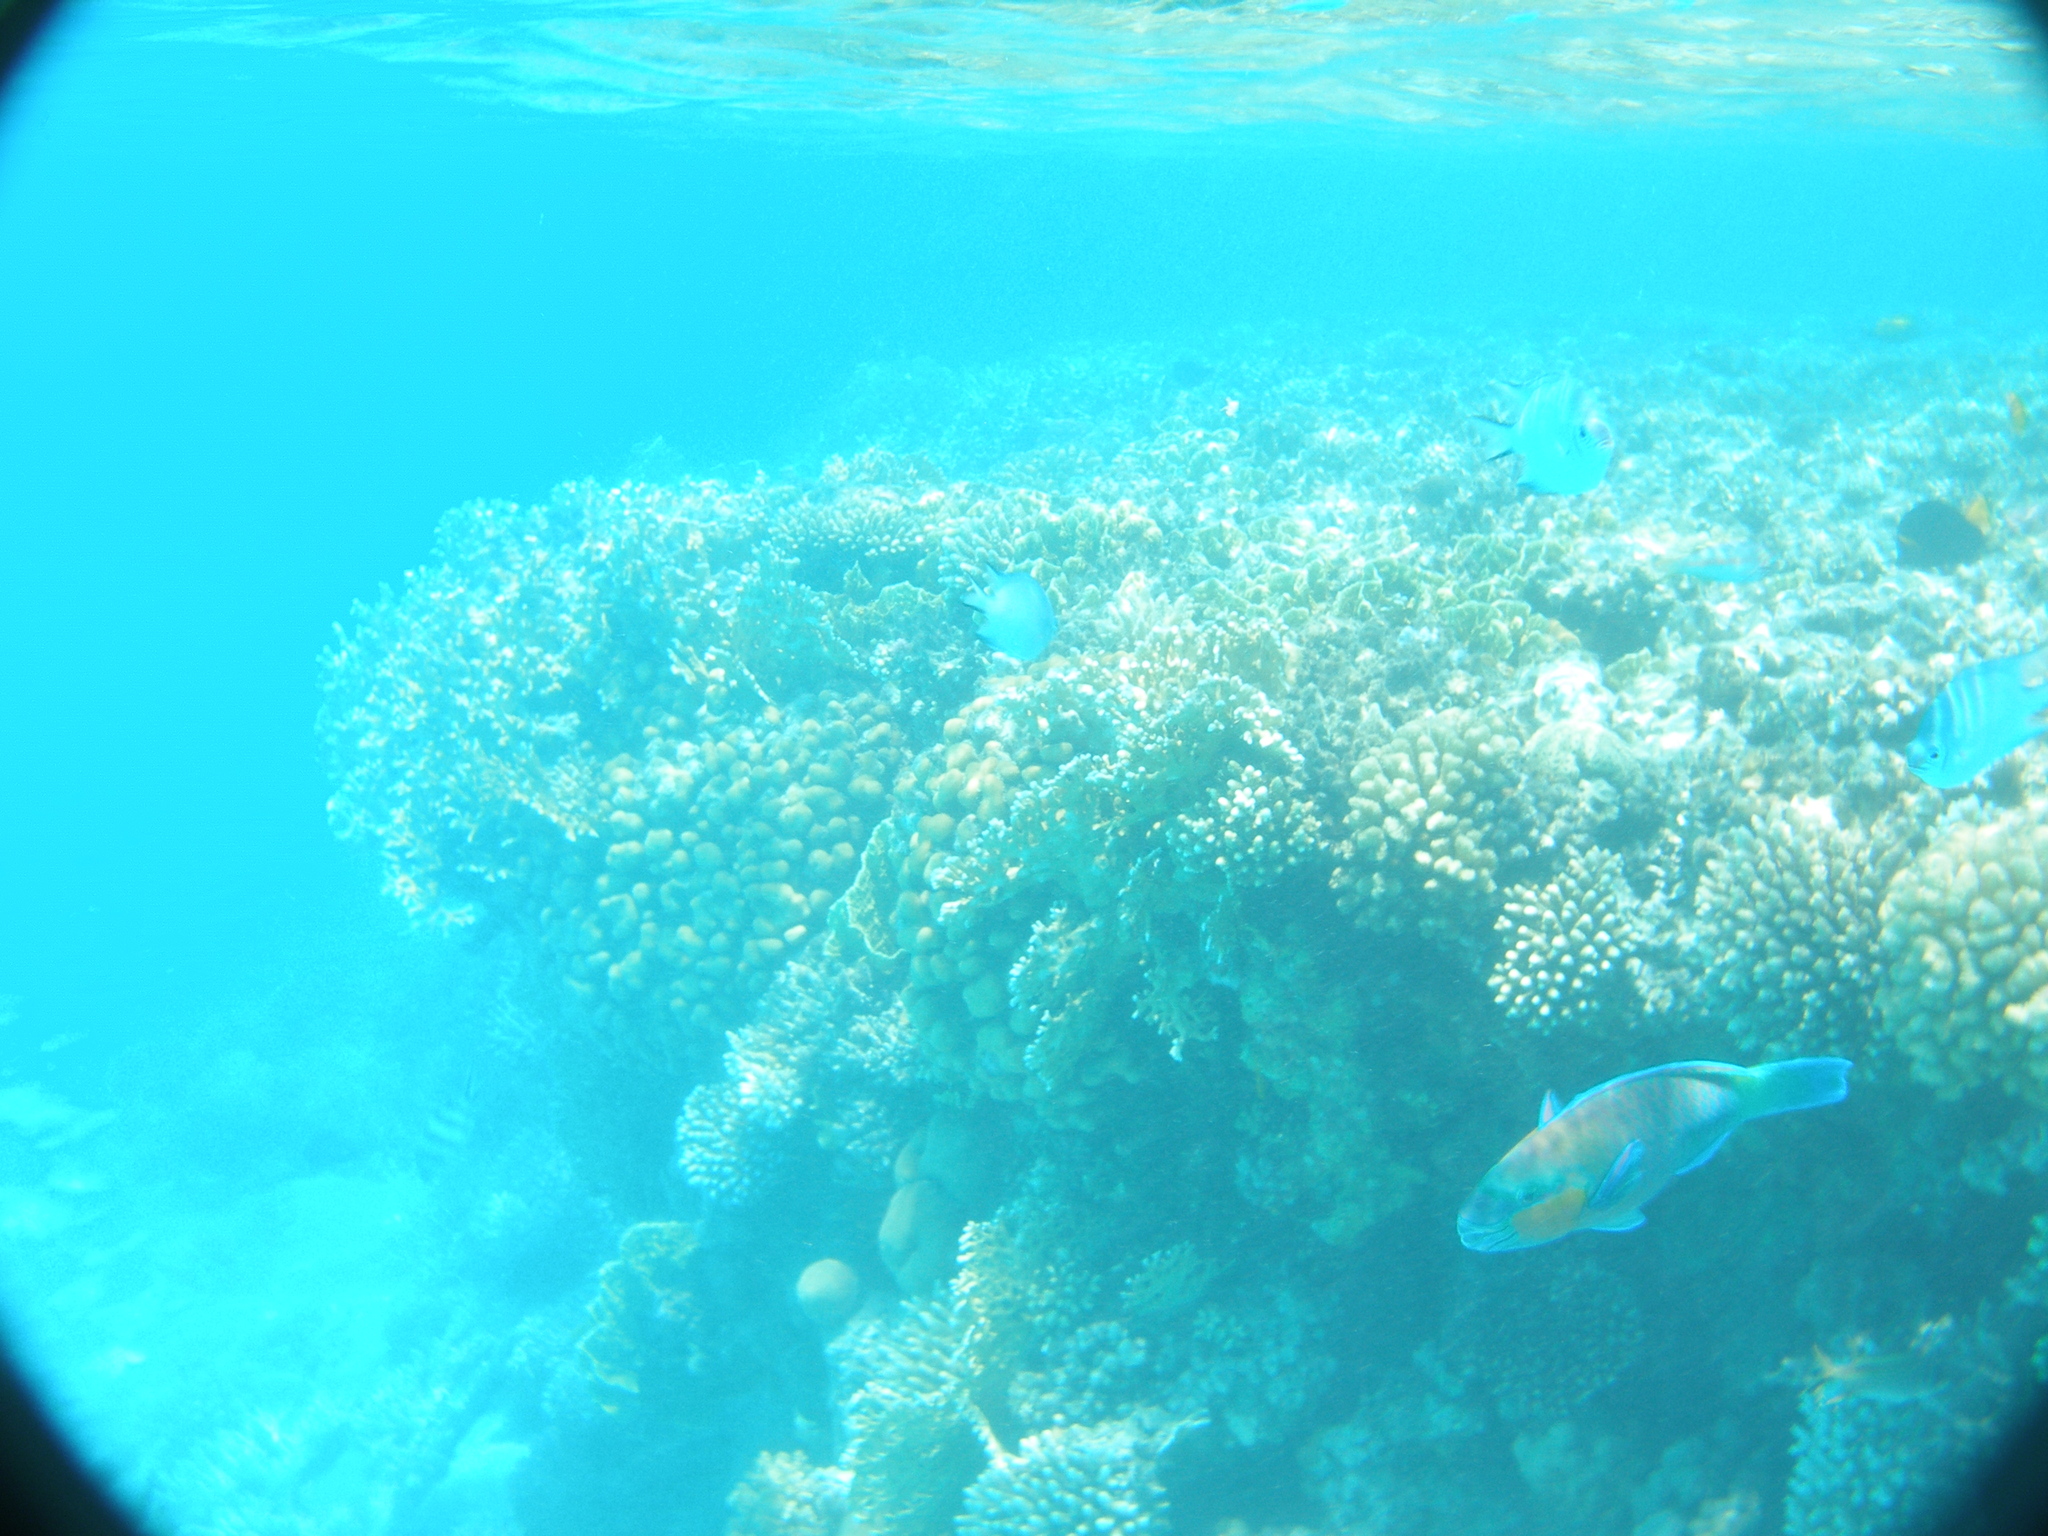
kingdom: Animalia
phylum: Chordata
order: Perciformes
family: Scaridae
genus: Chlorurus
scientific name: Chlorurus sordidus
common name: Bullethead parrotfish
